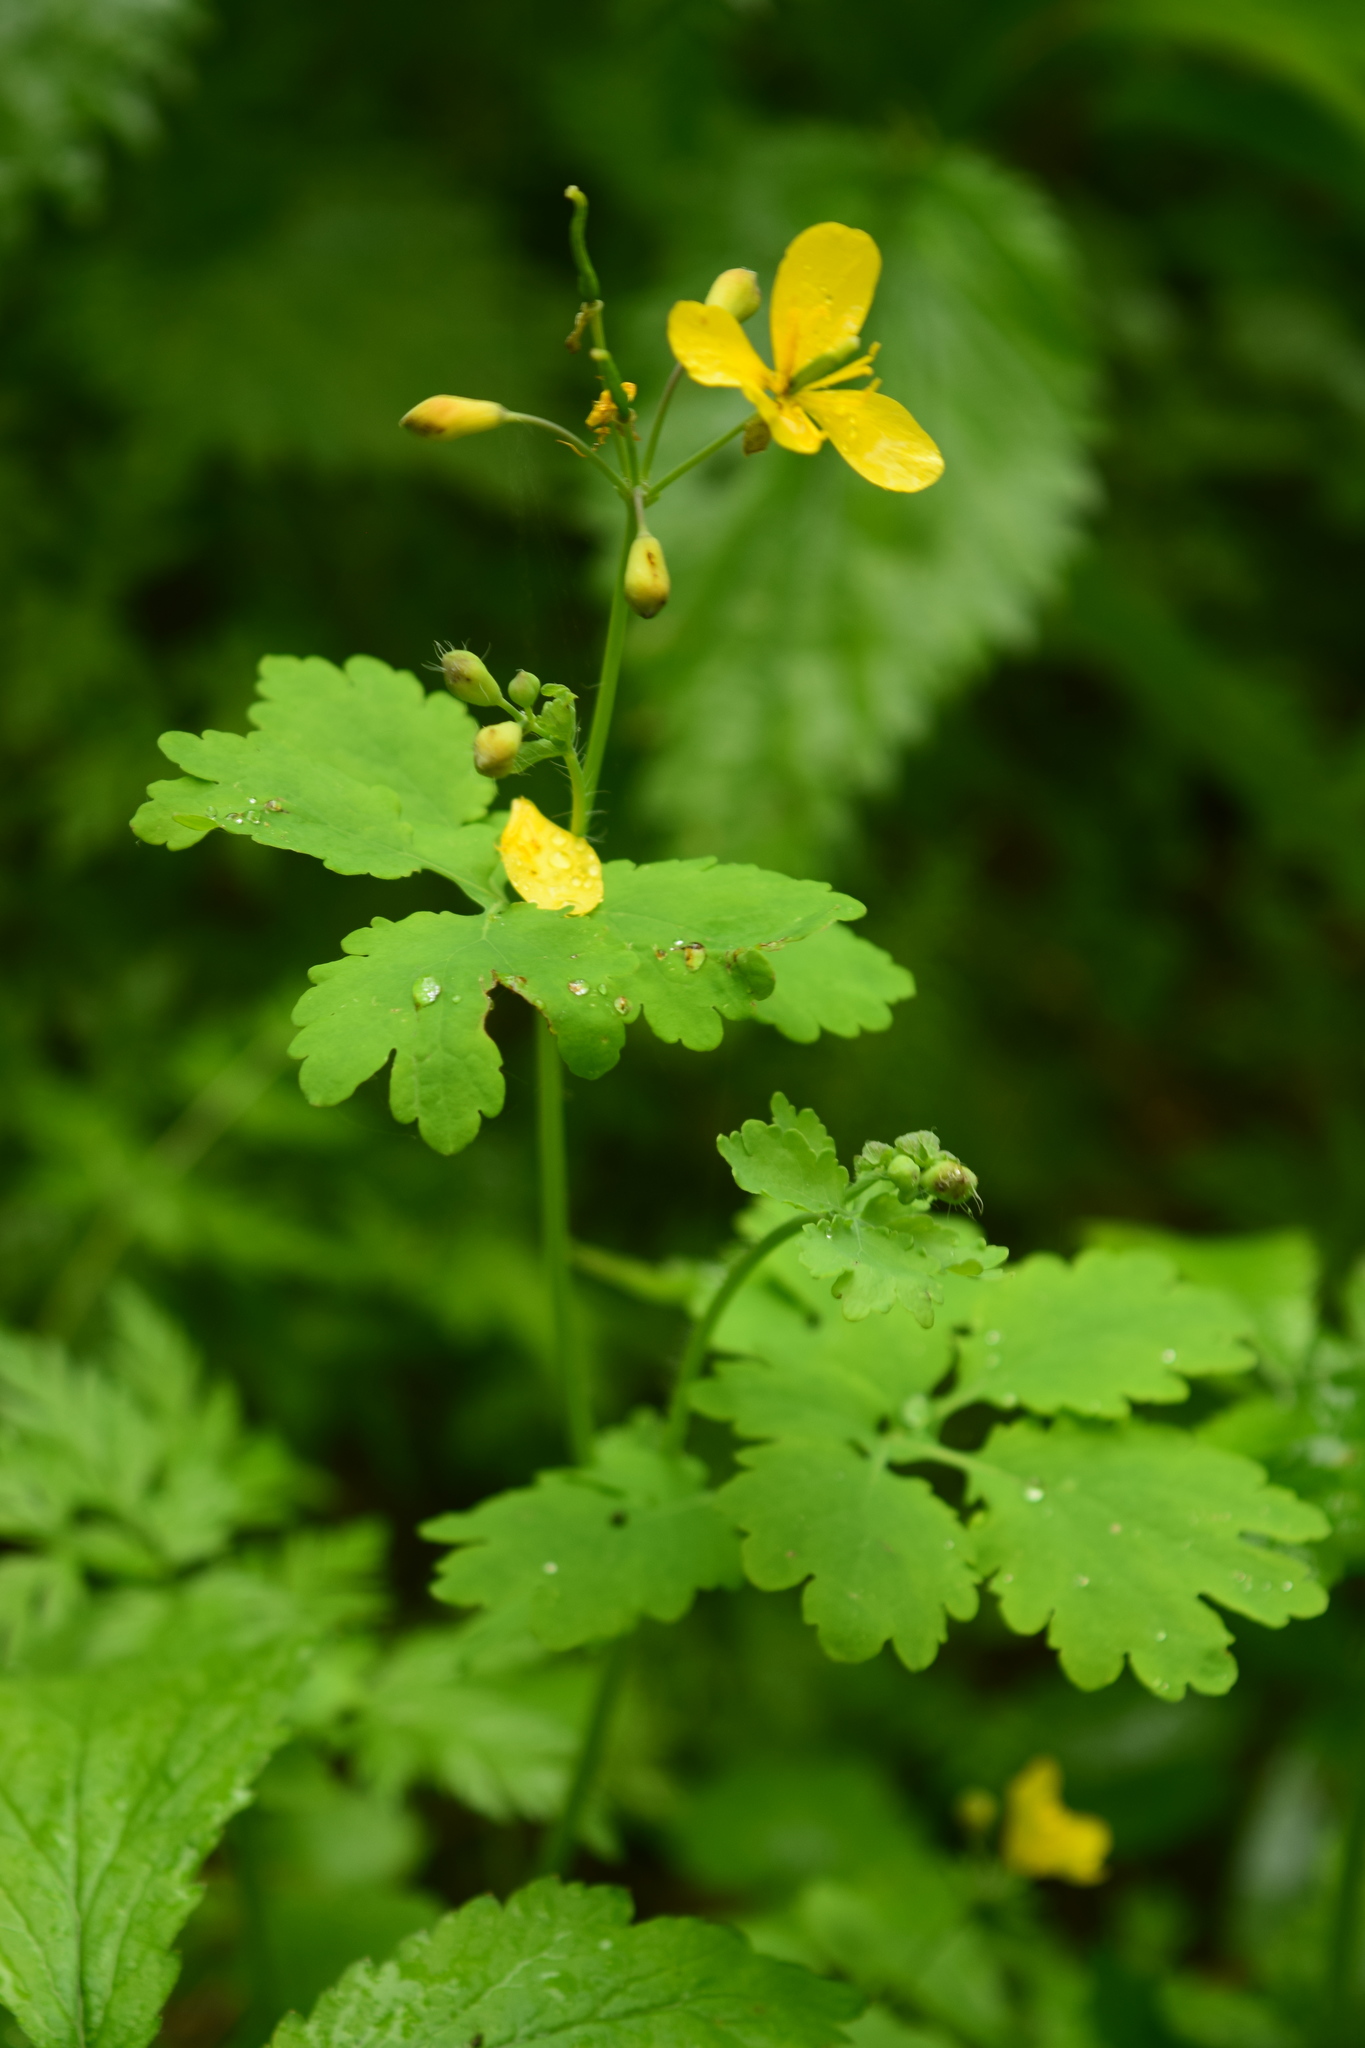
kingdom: Plantae
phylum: Tracheophyta
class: Magnoliopsida
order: Ranunculales
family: Papaveraceae
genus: Chelidonium
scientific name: Chelidonium majus
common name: Greater celandine
